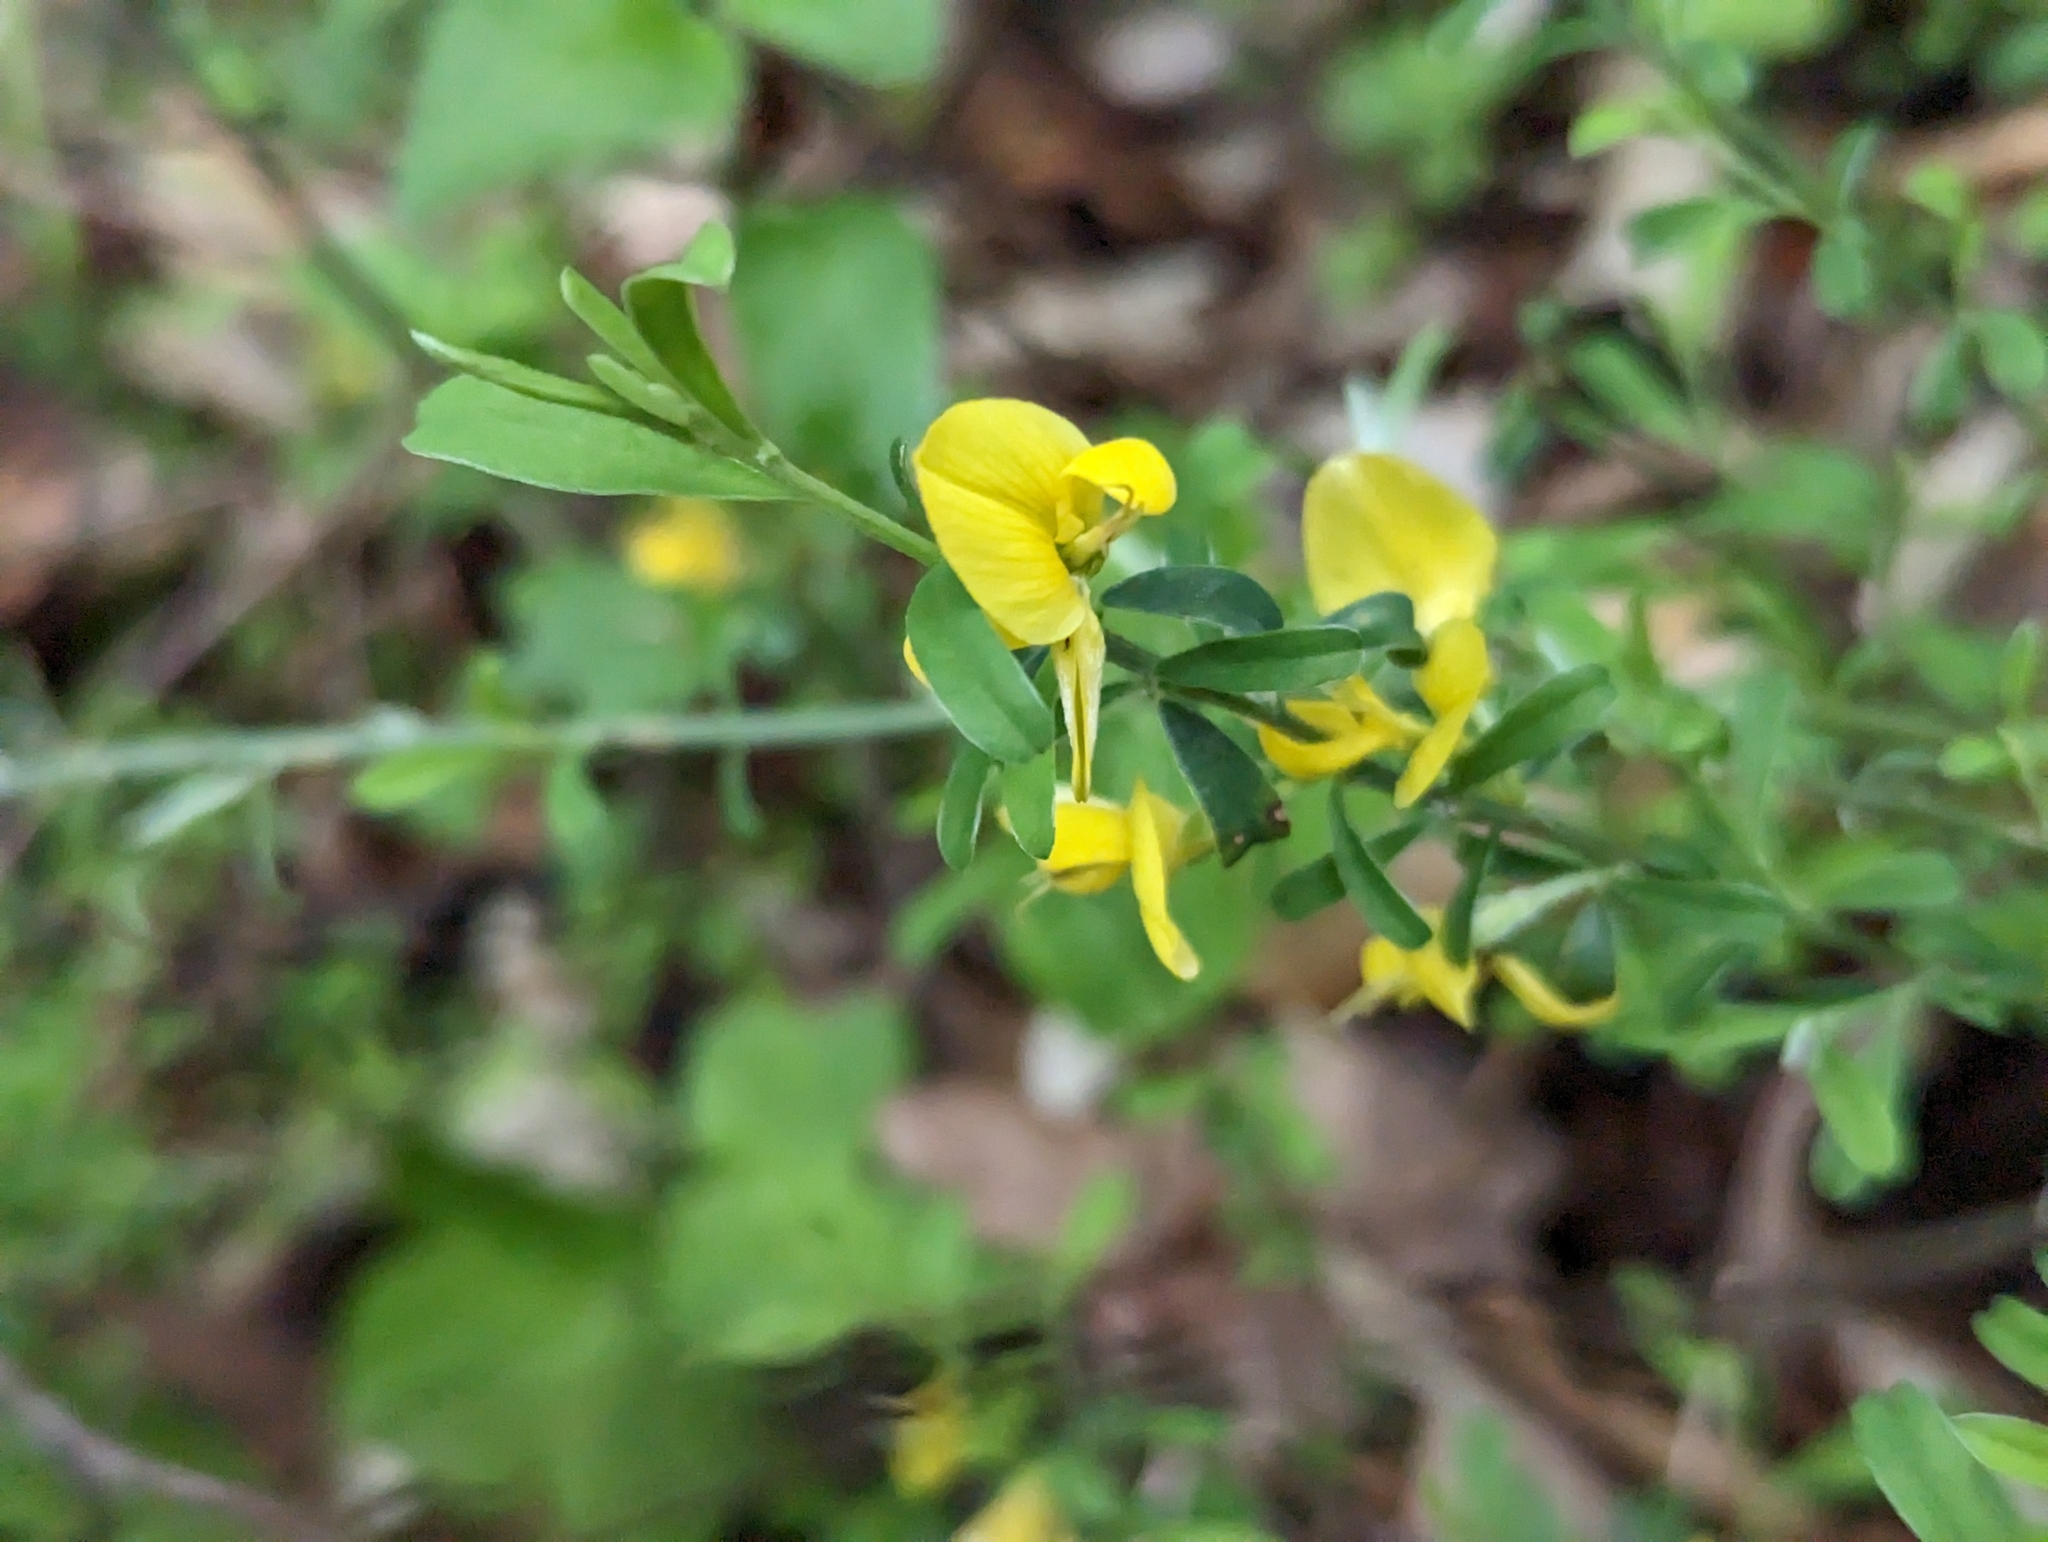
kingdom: Plantae
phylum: Tracheophyta
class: Magnoliopsida
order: Fabales
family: Fabaceae
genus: Genista
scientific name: Genista pilosa
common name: Hairy greenweed
